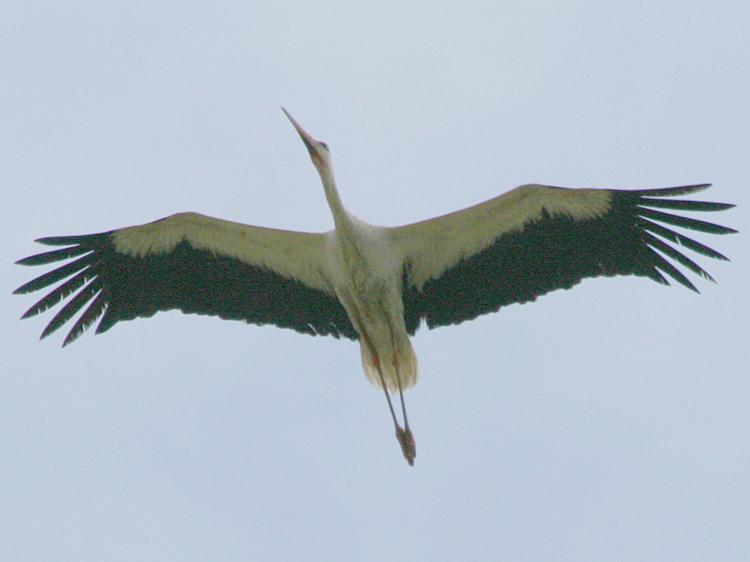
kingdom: Animalia
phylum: Chordata
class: Aves
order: Ciconiiformes
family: Ciconiidae
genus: Ciconia
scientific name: Ciconia ciconia
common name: White stork
